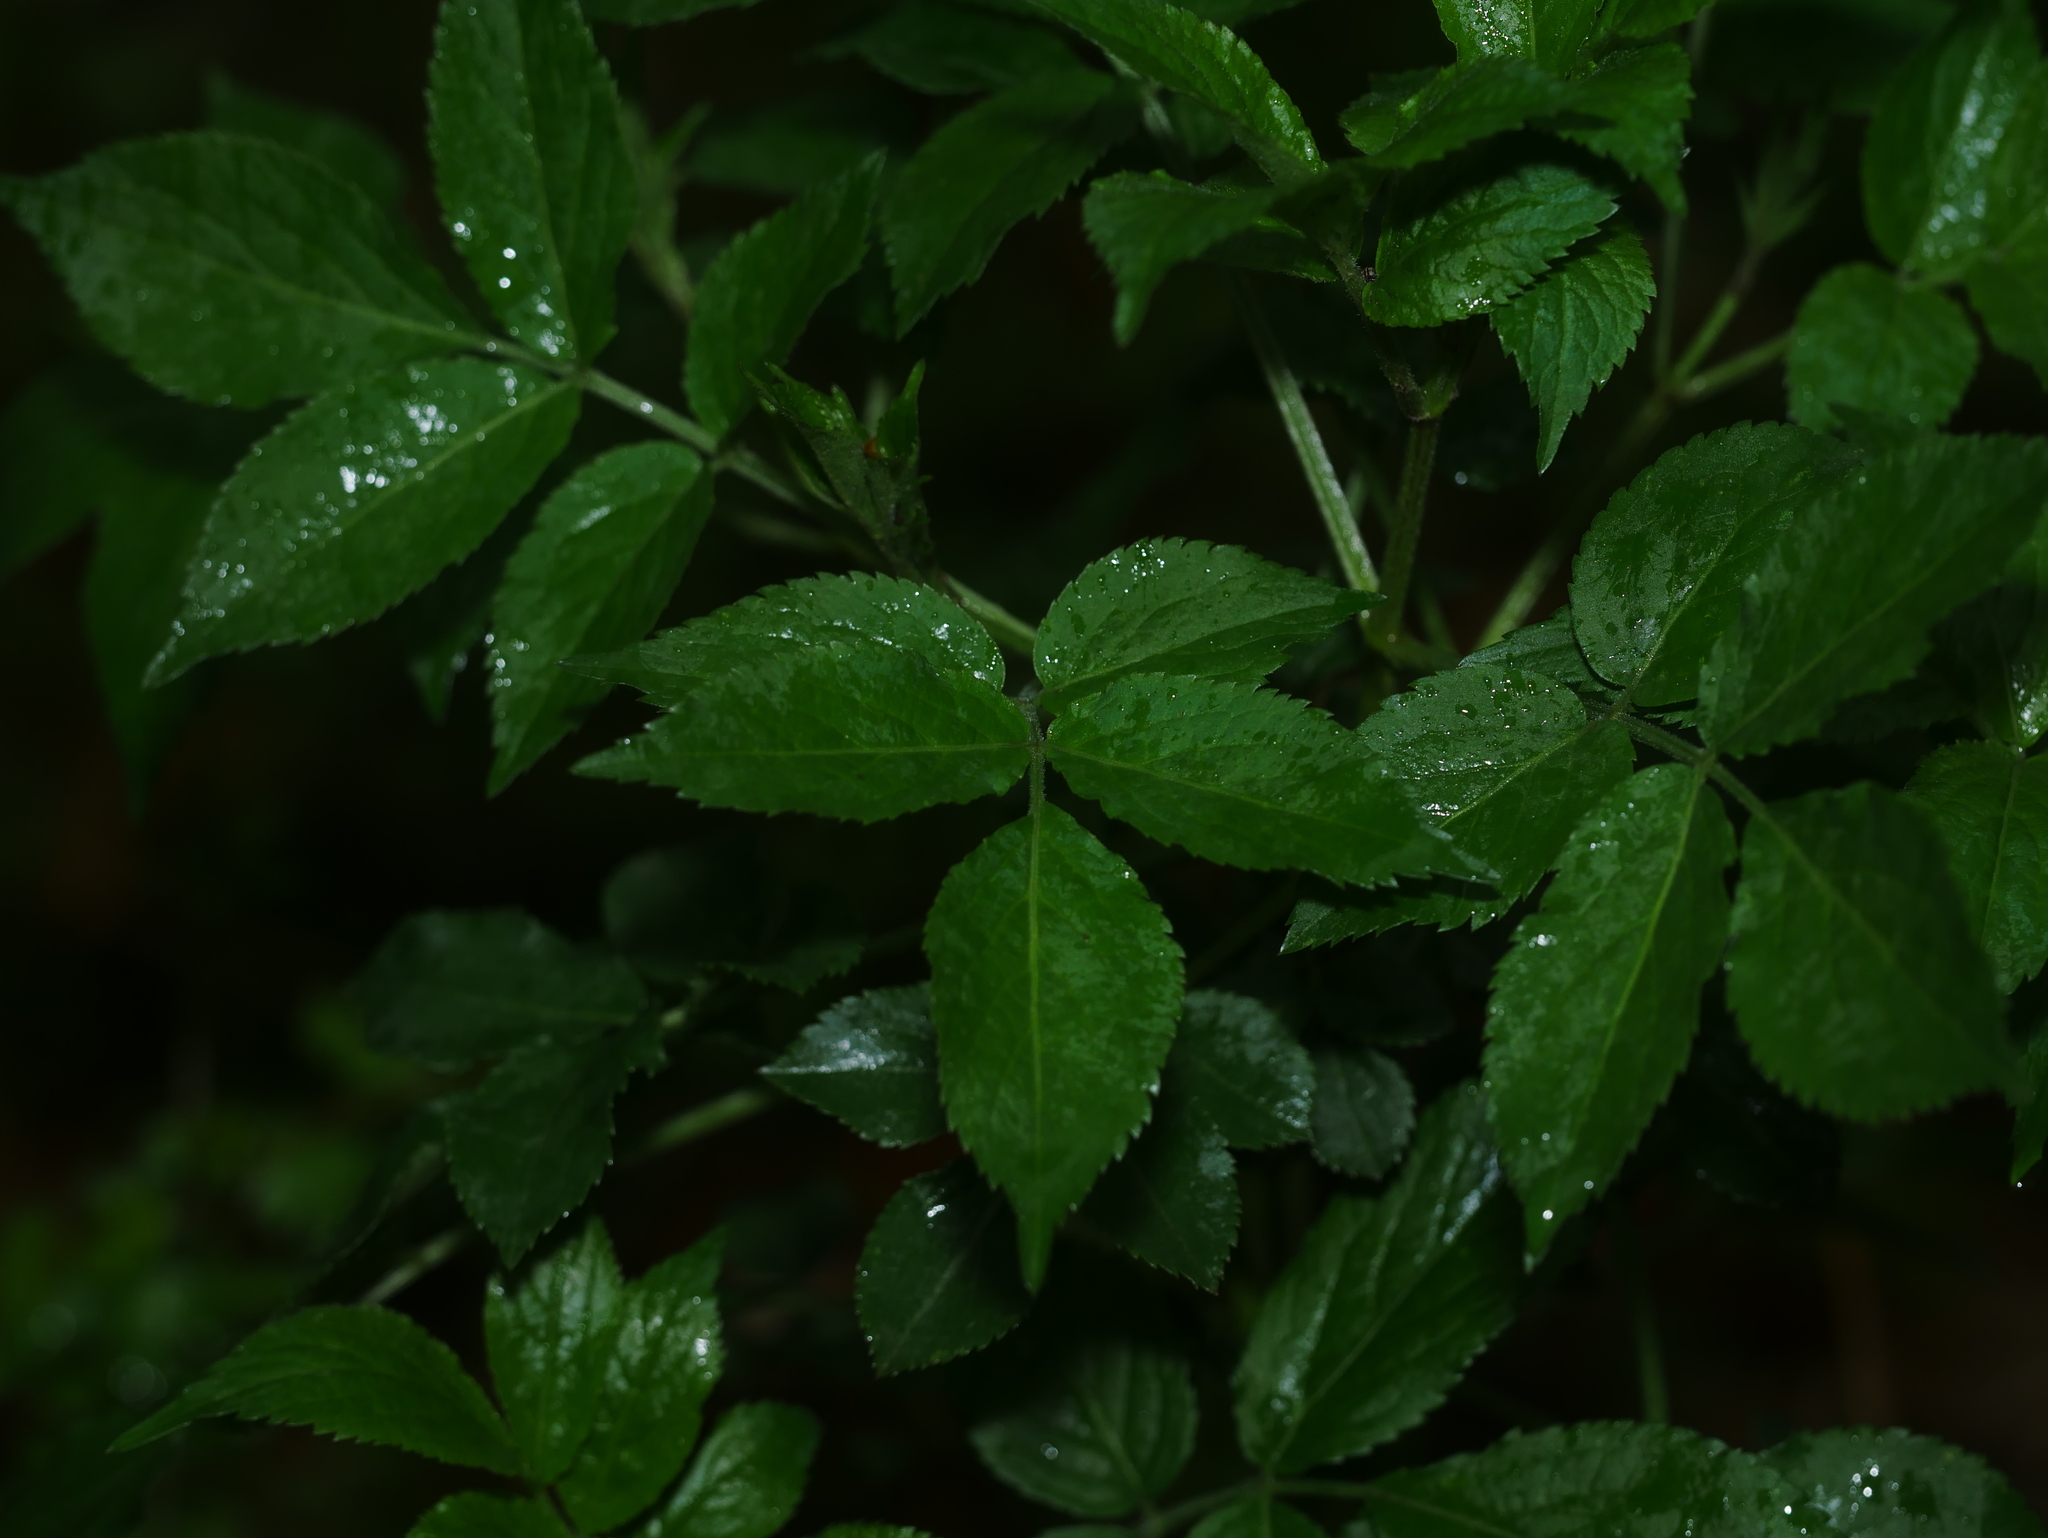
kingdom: Plantae
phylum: Tracheophyta
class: Magnoliopsida
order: Dipsacales
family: Viburnaceae
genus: Sambucus
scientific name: Sambucus nigra
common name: Elder
